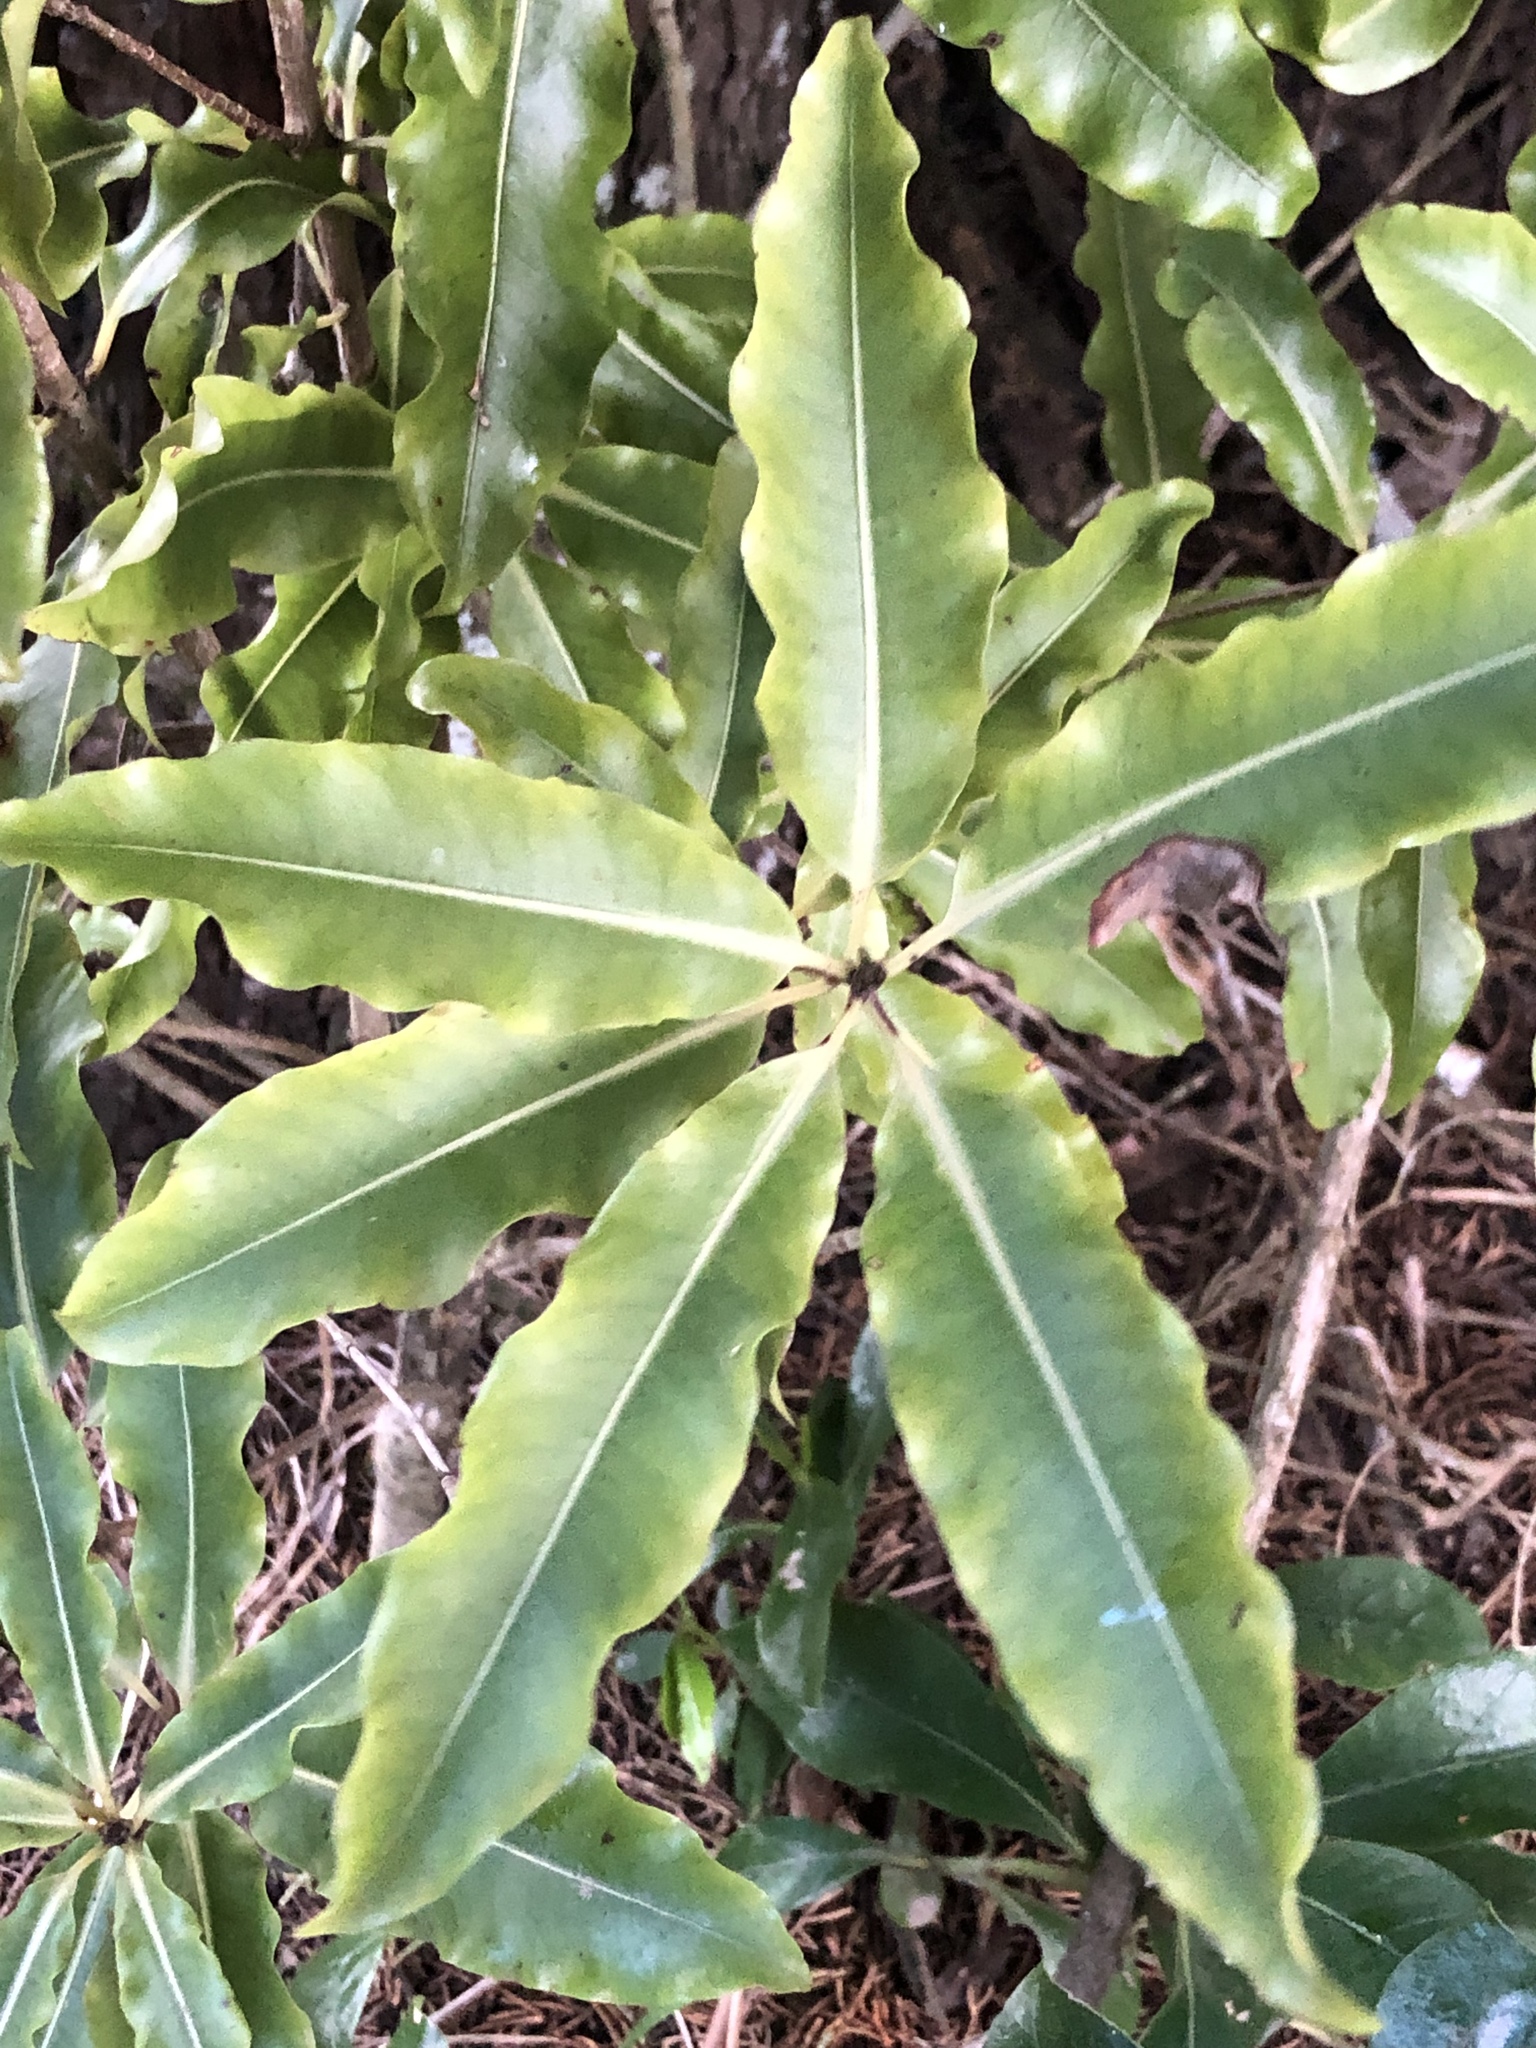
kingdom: Plantae
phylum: Tracheophyta
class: Magnoliopsida
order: Apiales
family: Pittosporaceae
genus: Pittosporum
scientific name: Pittosporum eugenioides
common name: Lemonwood
